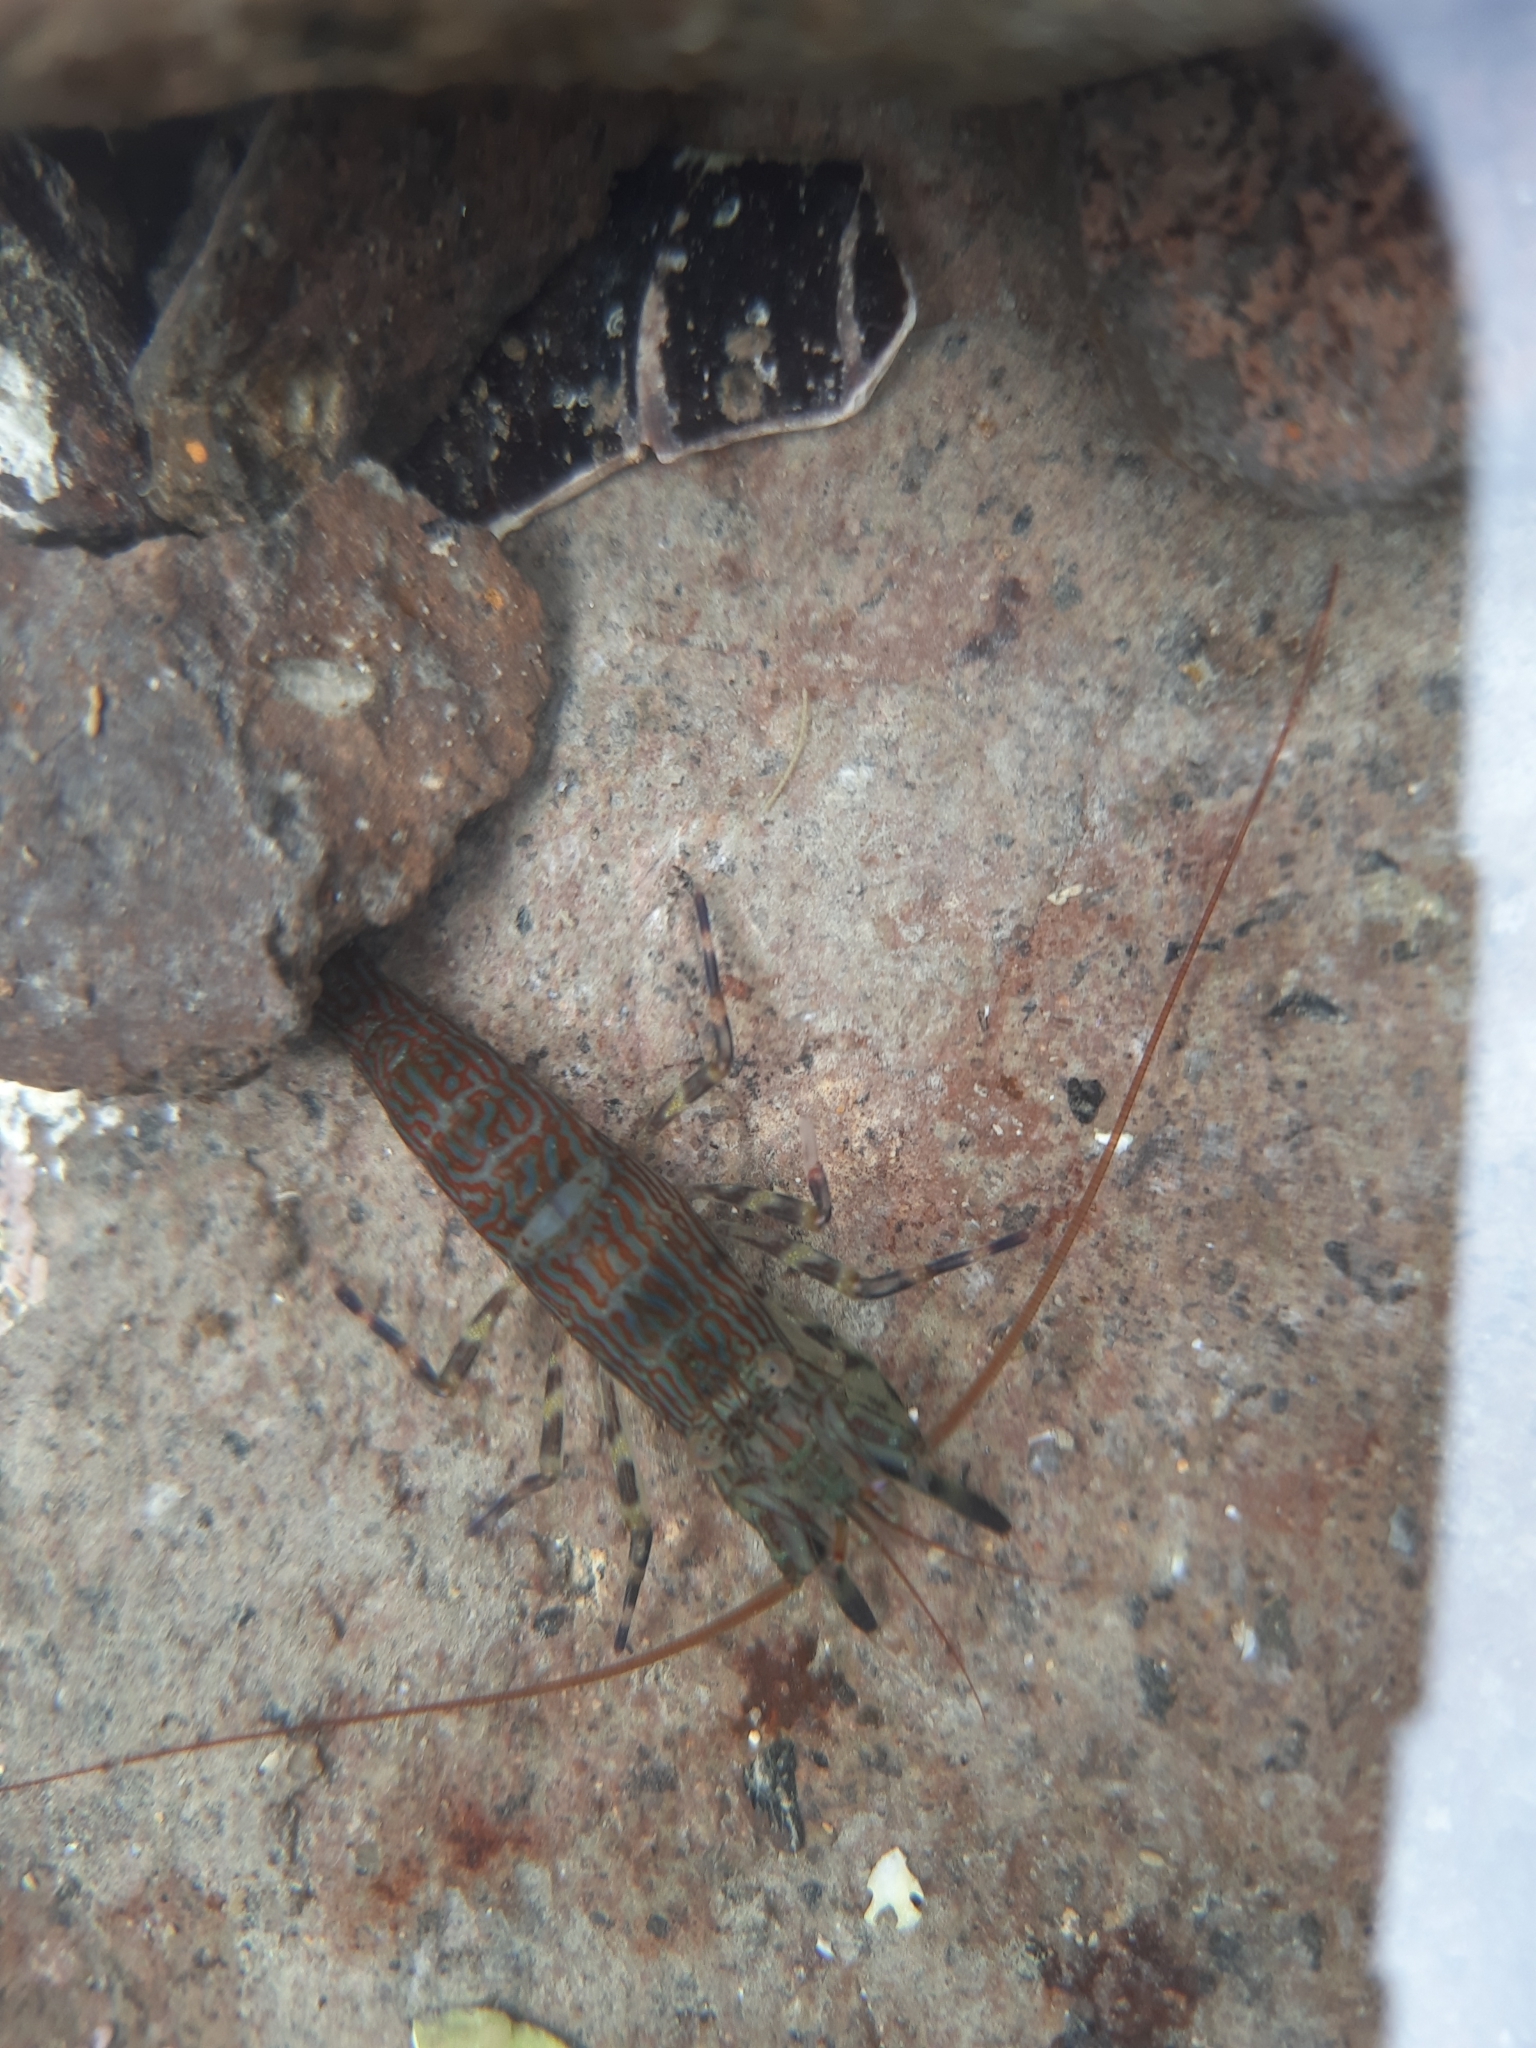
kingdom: Animalia
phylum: Arthropoda
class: Malacostraca
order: Decapoda
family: Hippolytidae
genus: Alope
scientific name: Alope spinifrons
